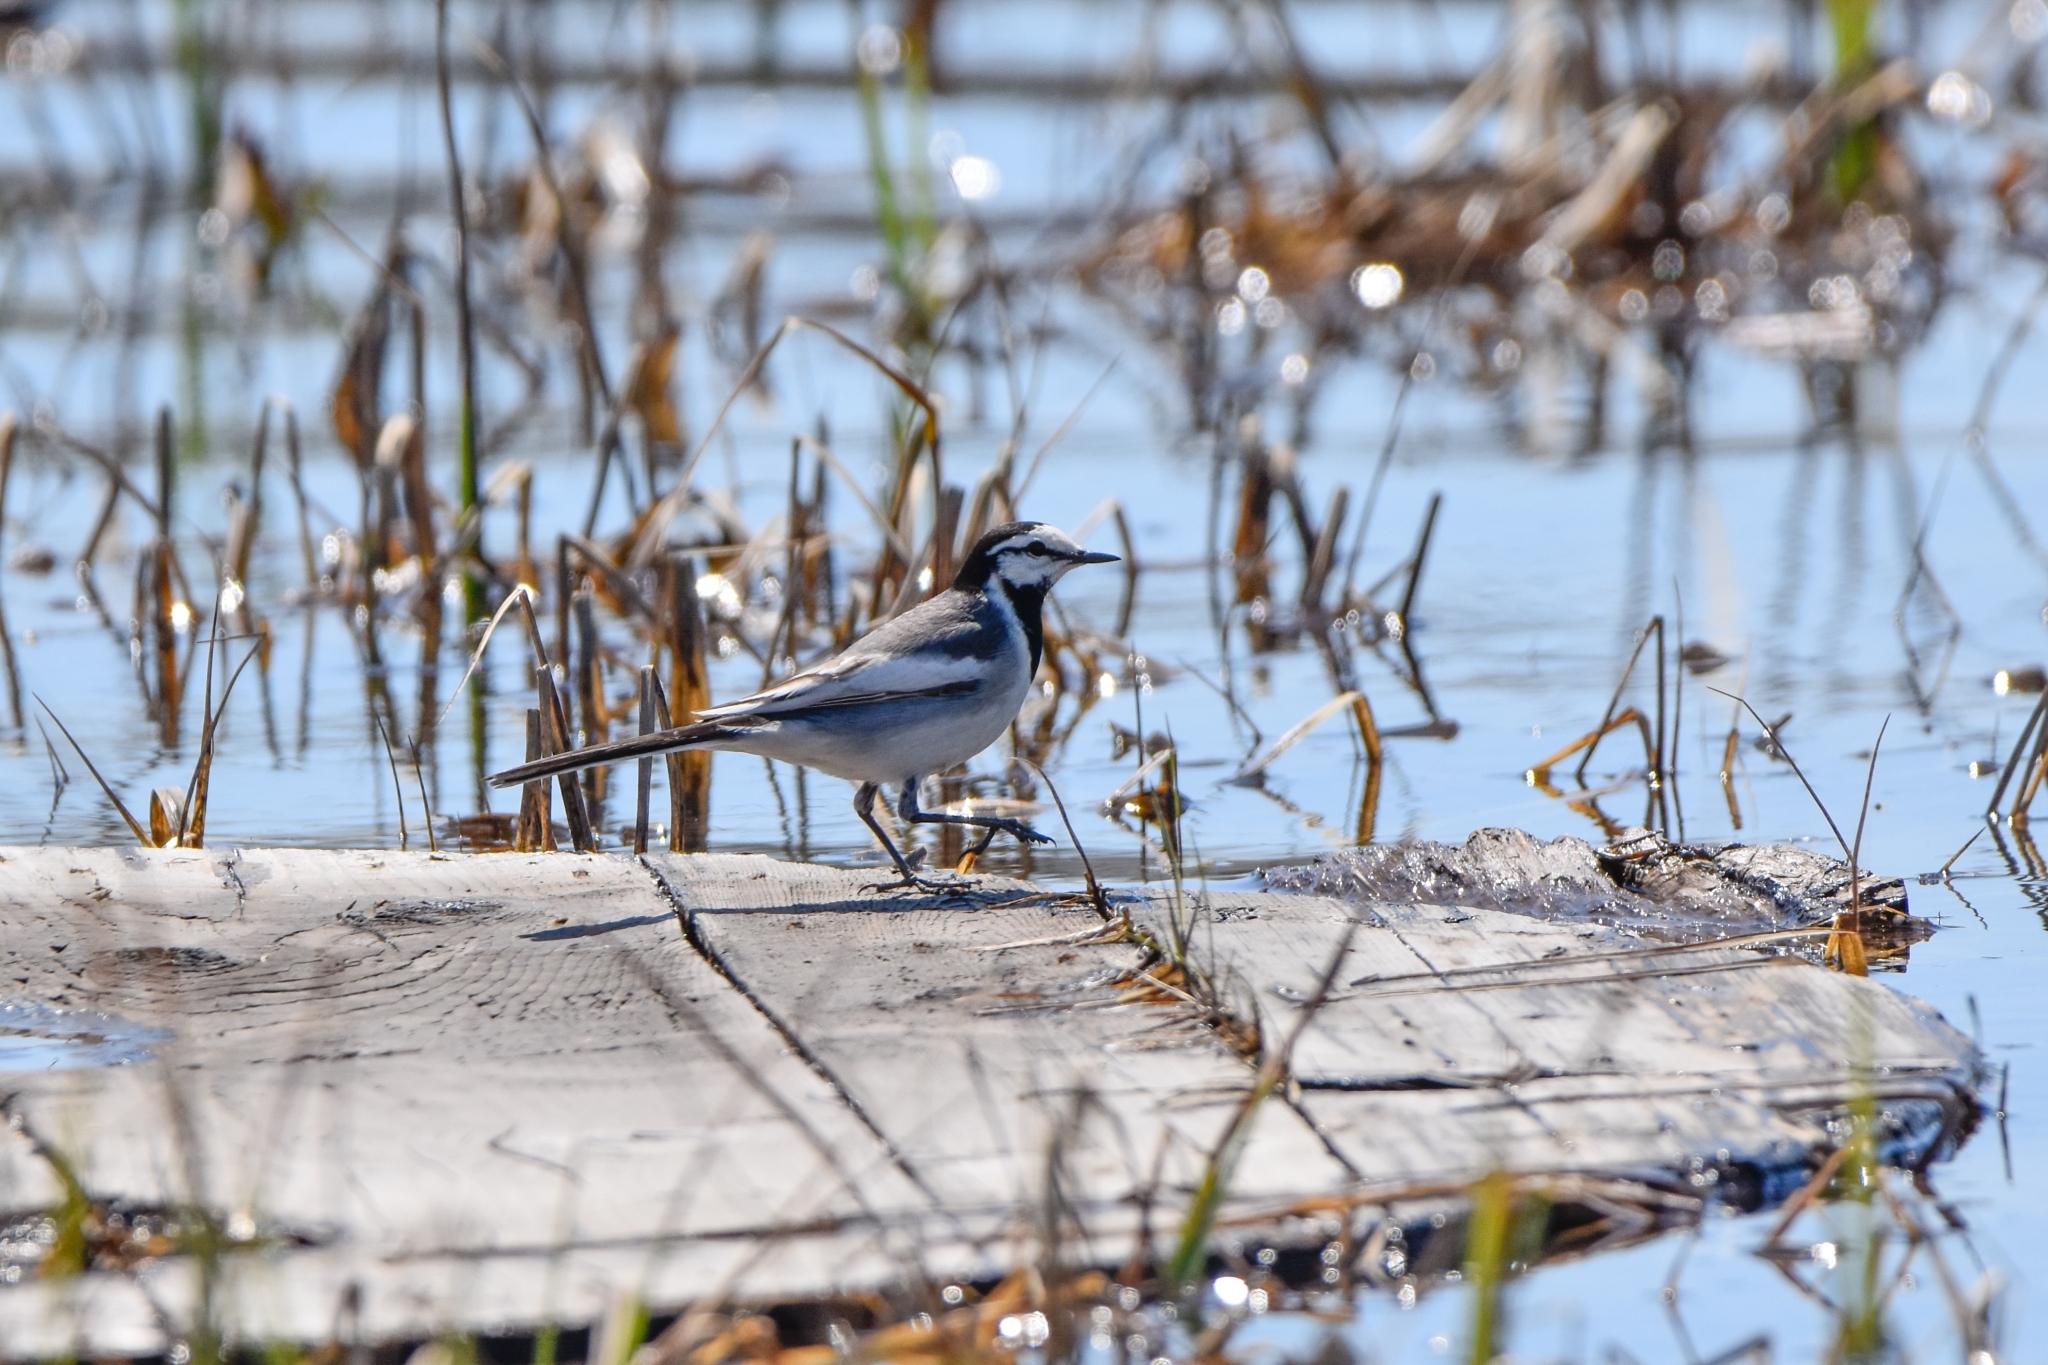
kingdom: Animalia
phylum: Chordata
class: Aves
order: Passeriformes
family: Motacillidae
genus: Motacilla
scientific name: Motacilla alba
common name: White wagtail
